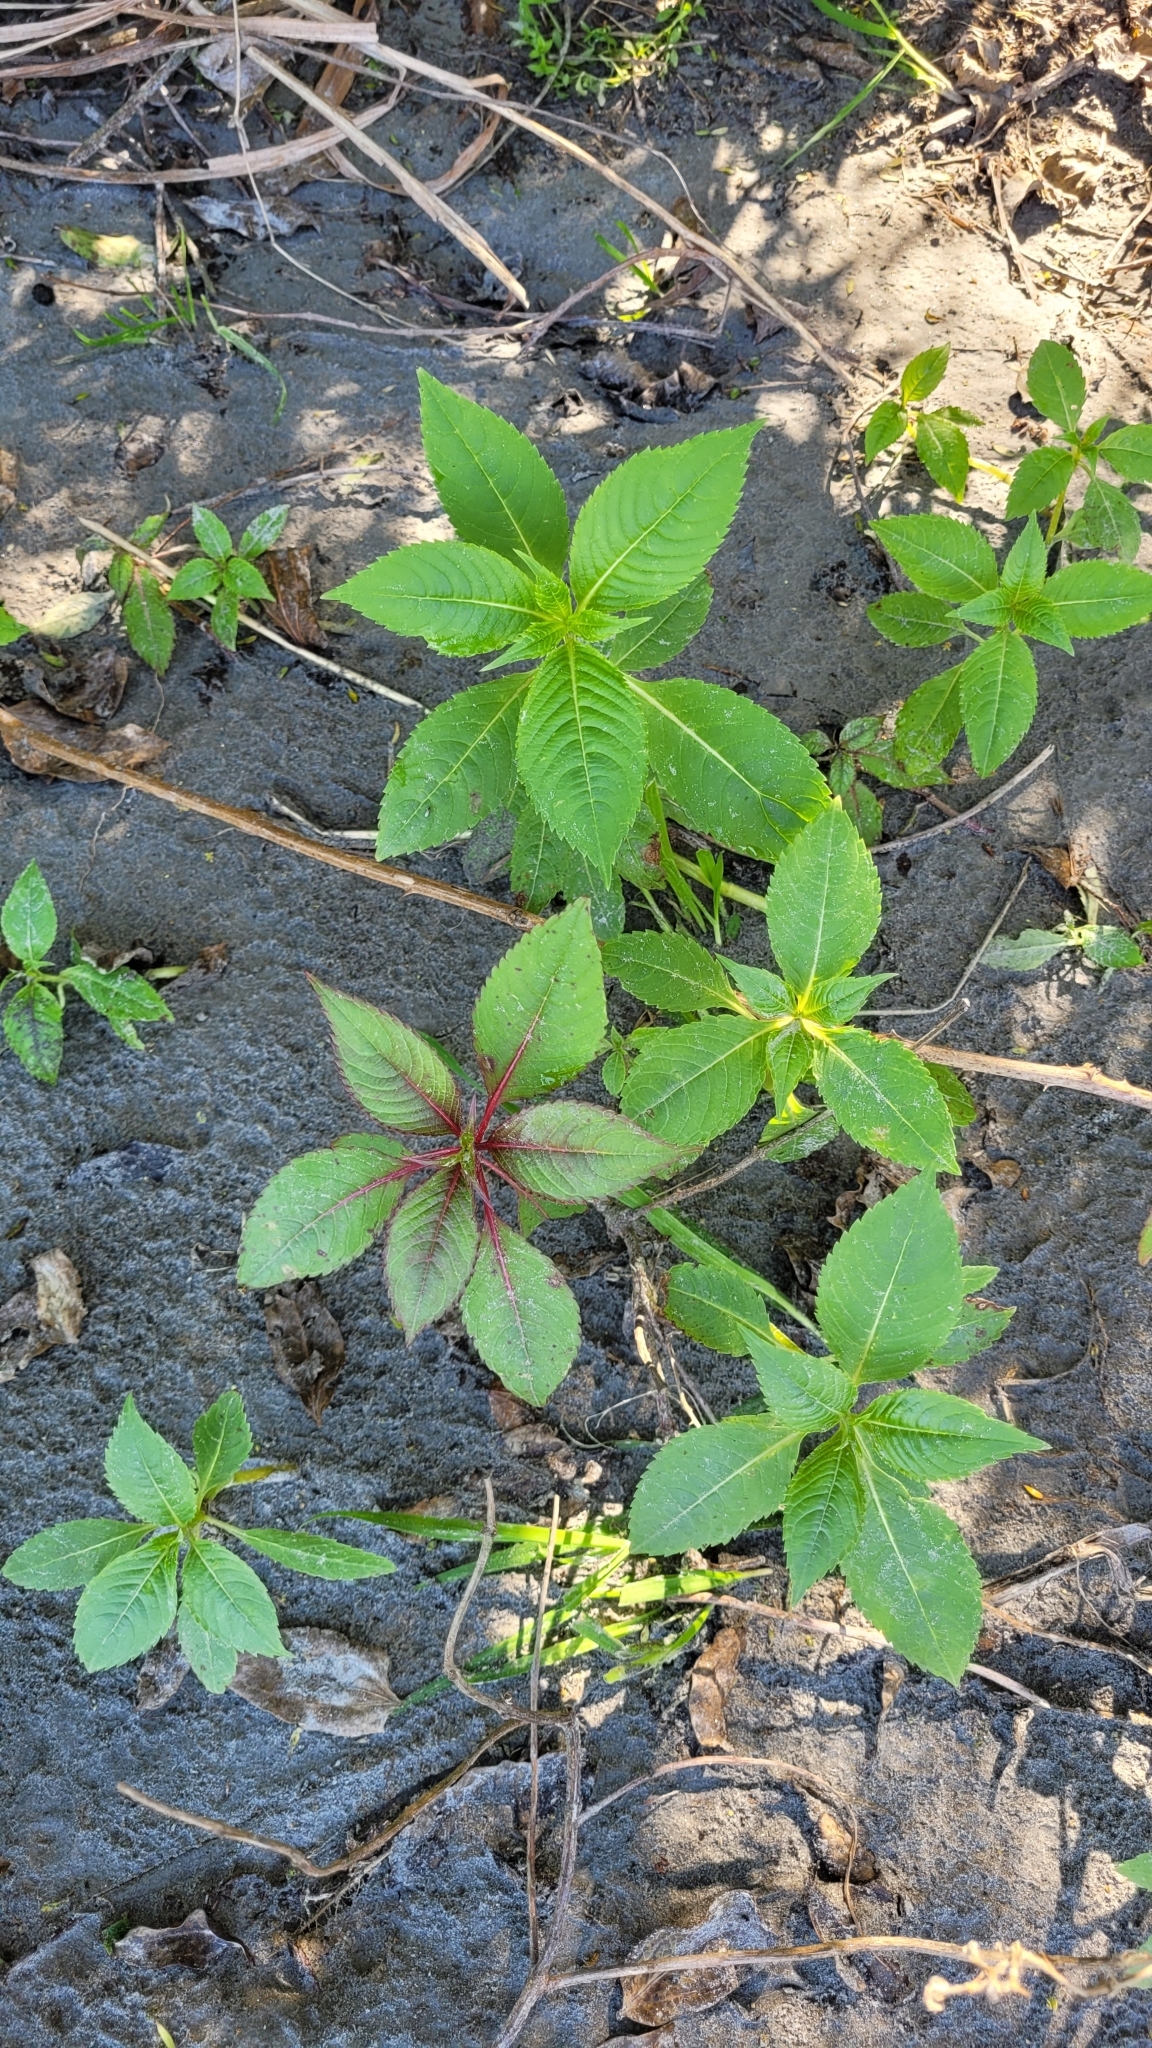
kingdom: Plantae
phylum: Tracheophyta
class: Magnoliopsida
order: Ericales
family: Balsaminaceae
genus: Impatiens
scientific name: Impatiens glandulifera
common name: Himalayan balsam
